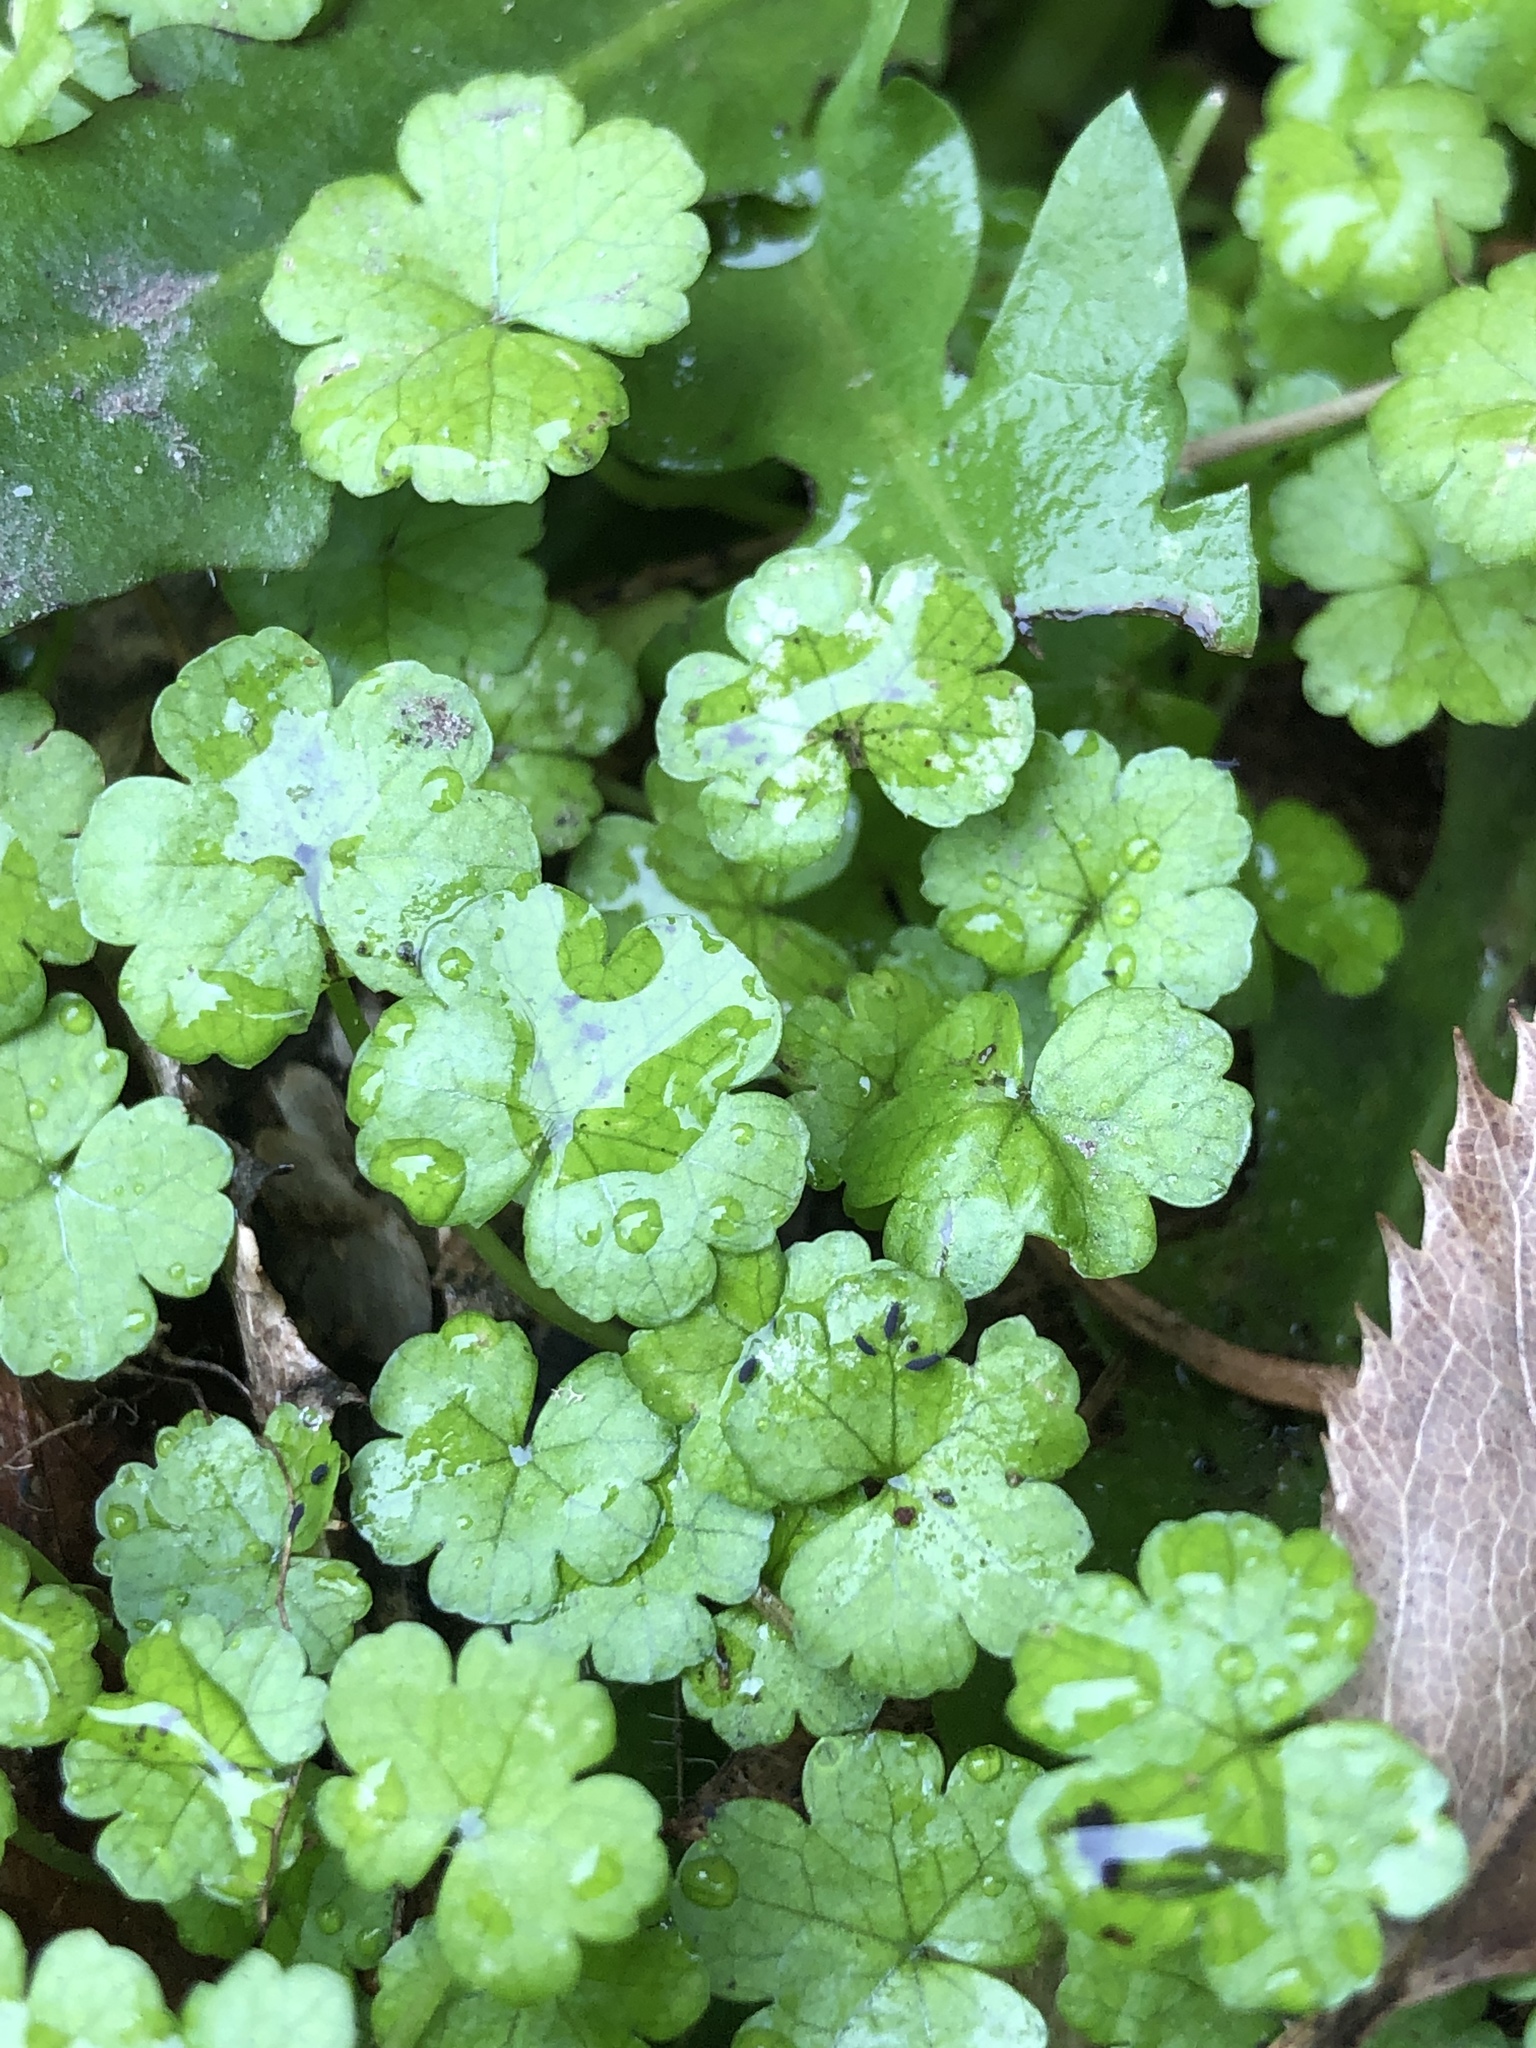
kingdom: Plantae
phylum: Tracheophyta
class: Magnoliopsida
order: Apiales
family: Araliaceae
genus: Hydrocotyle
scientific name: Hydrocotyle heteromeria
